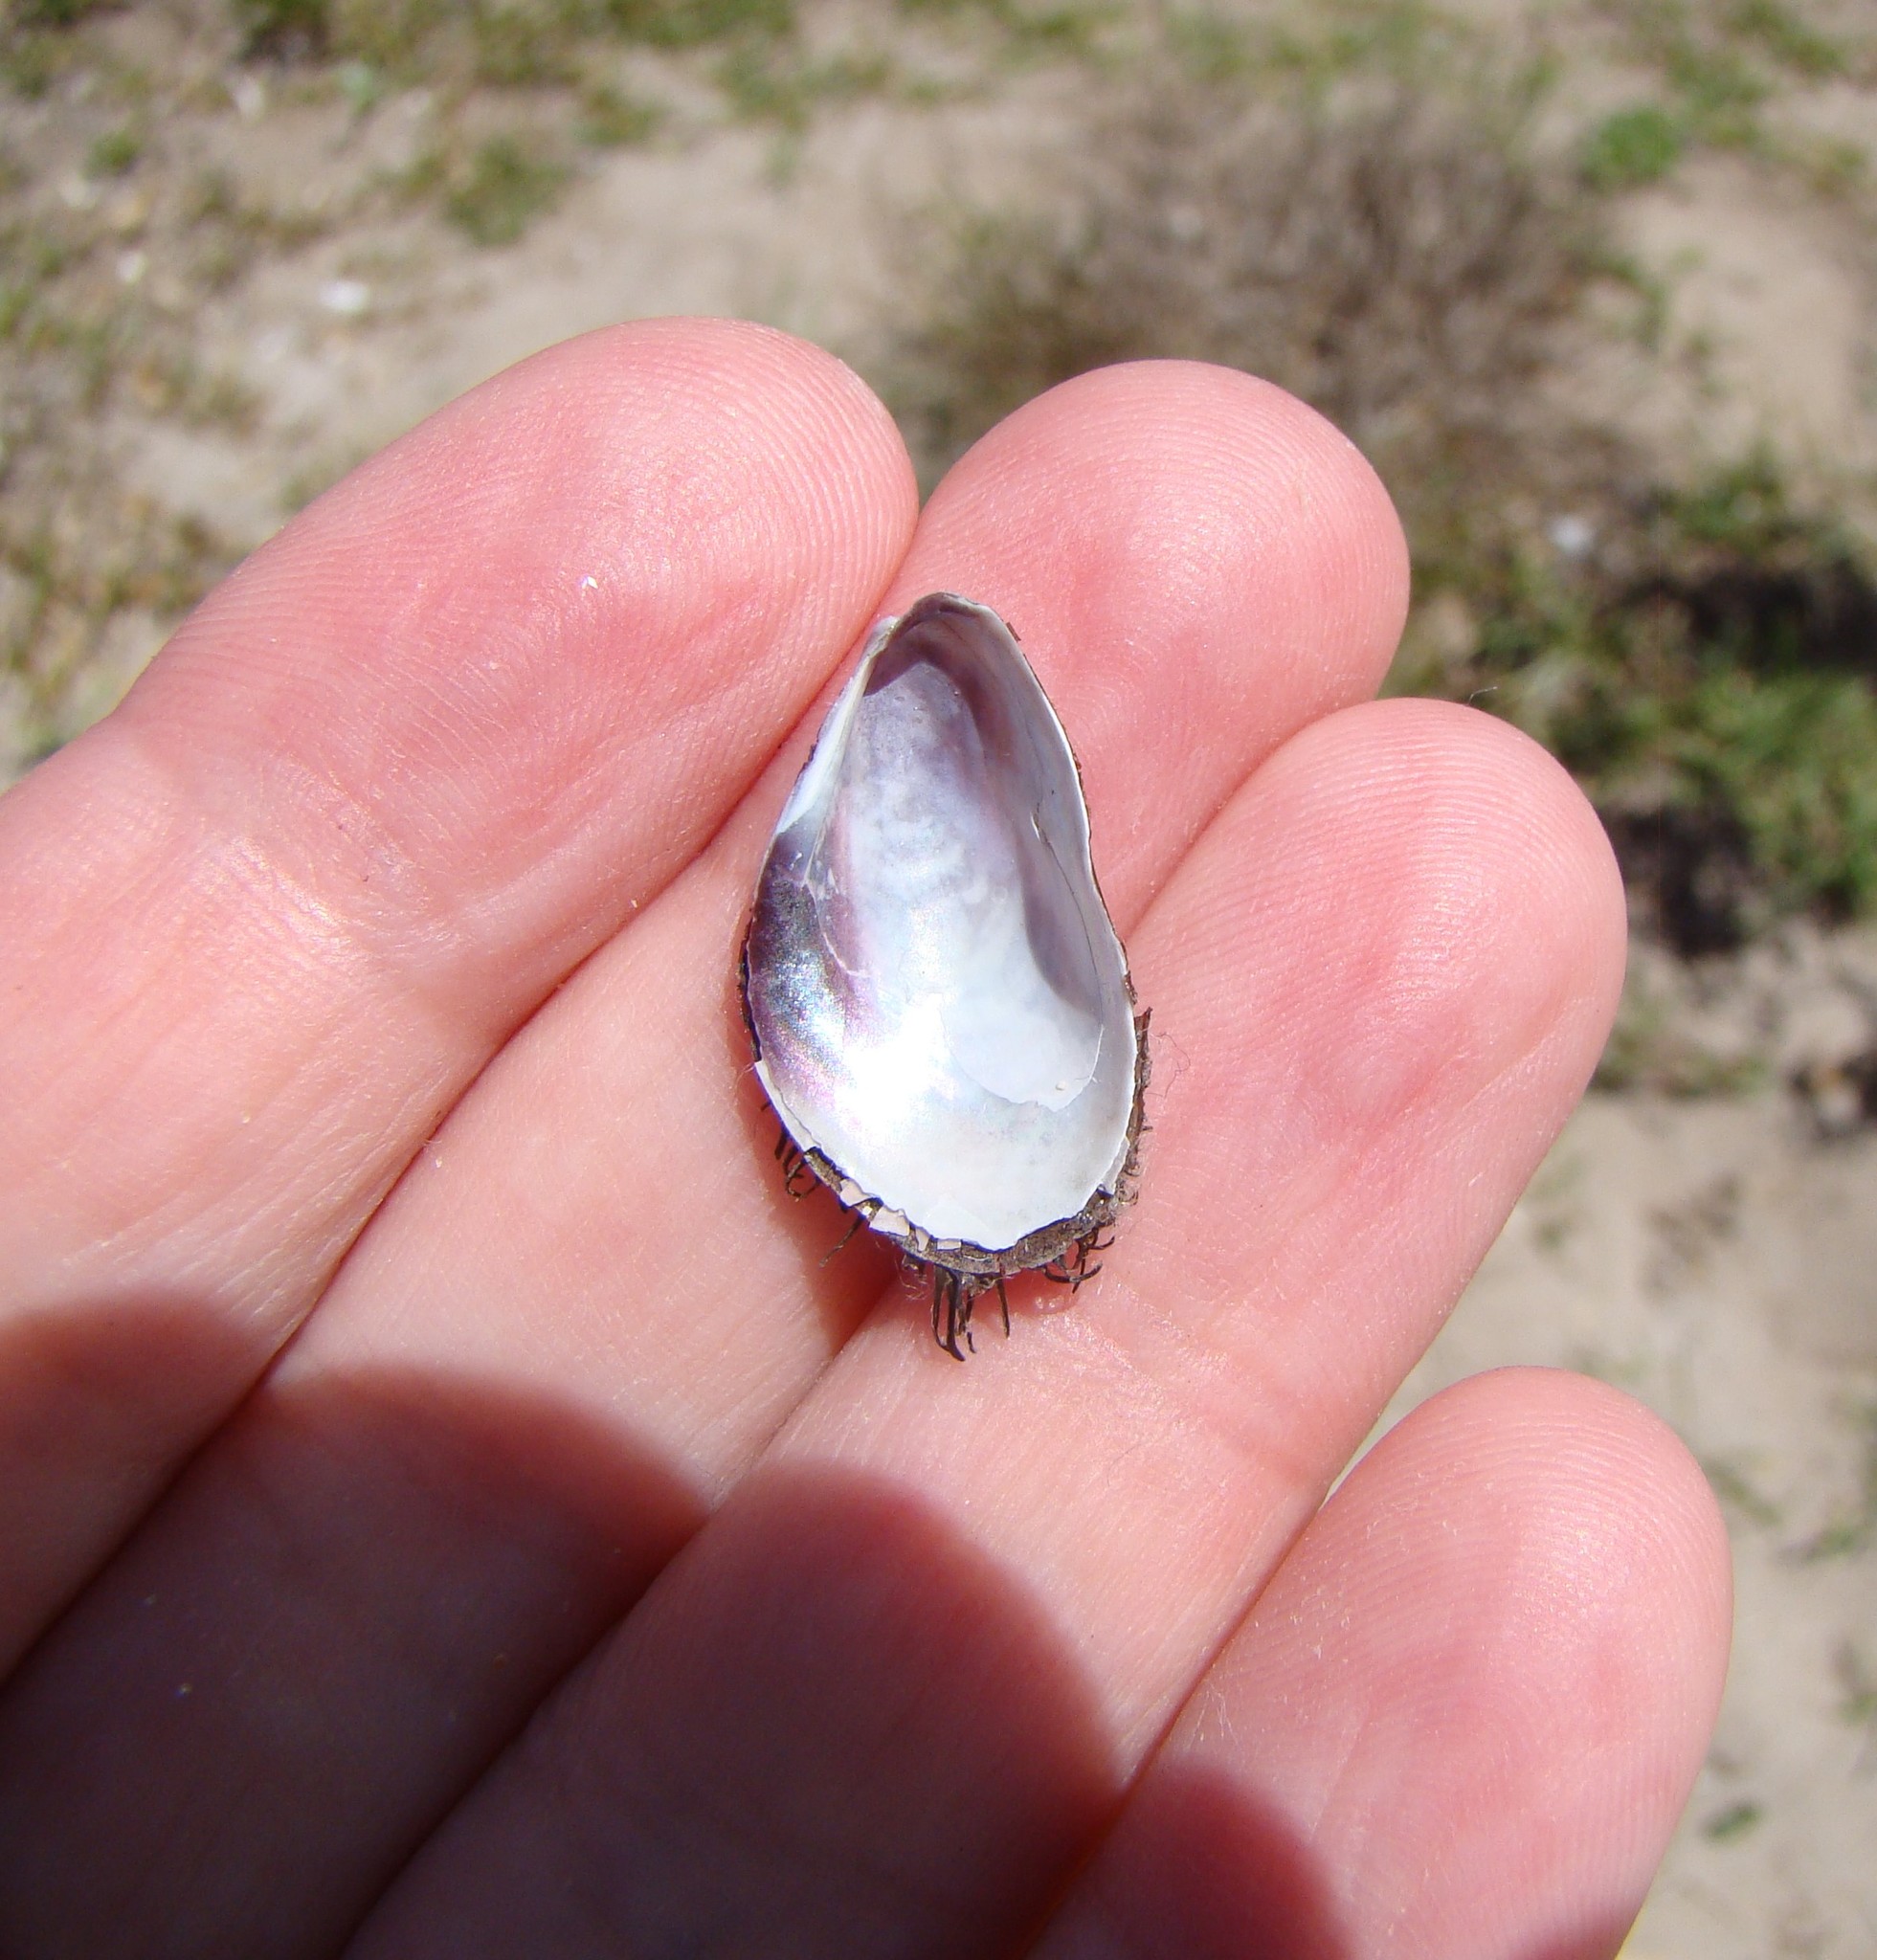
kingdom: Animalia
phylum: Mollusca
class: Bivalvia
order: Mytilida
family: Mytilidae
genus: Modiolus
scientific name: Modiolus areolatus
